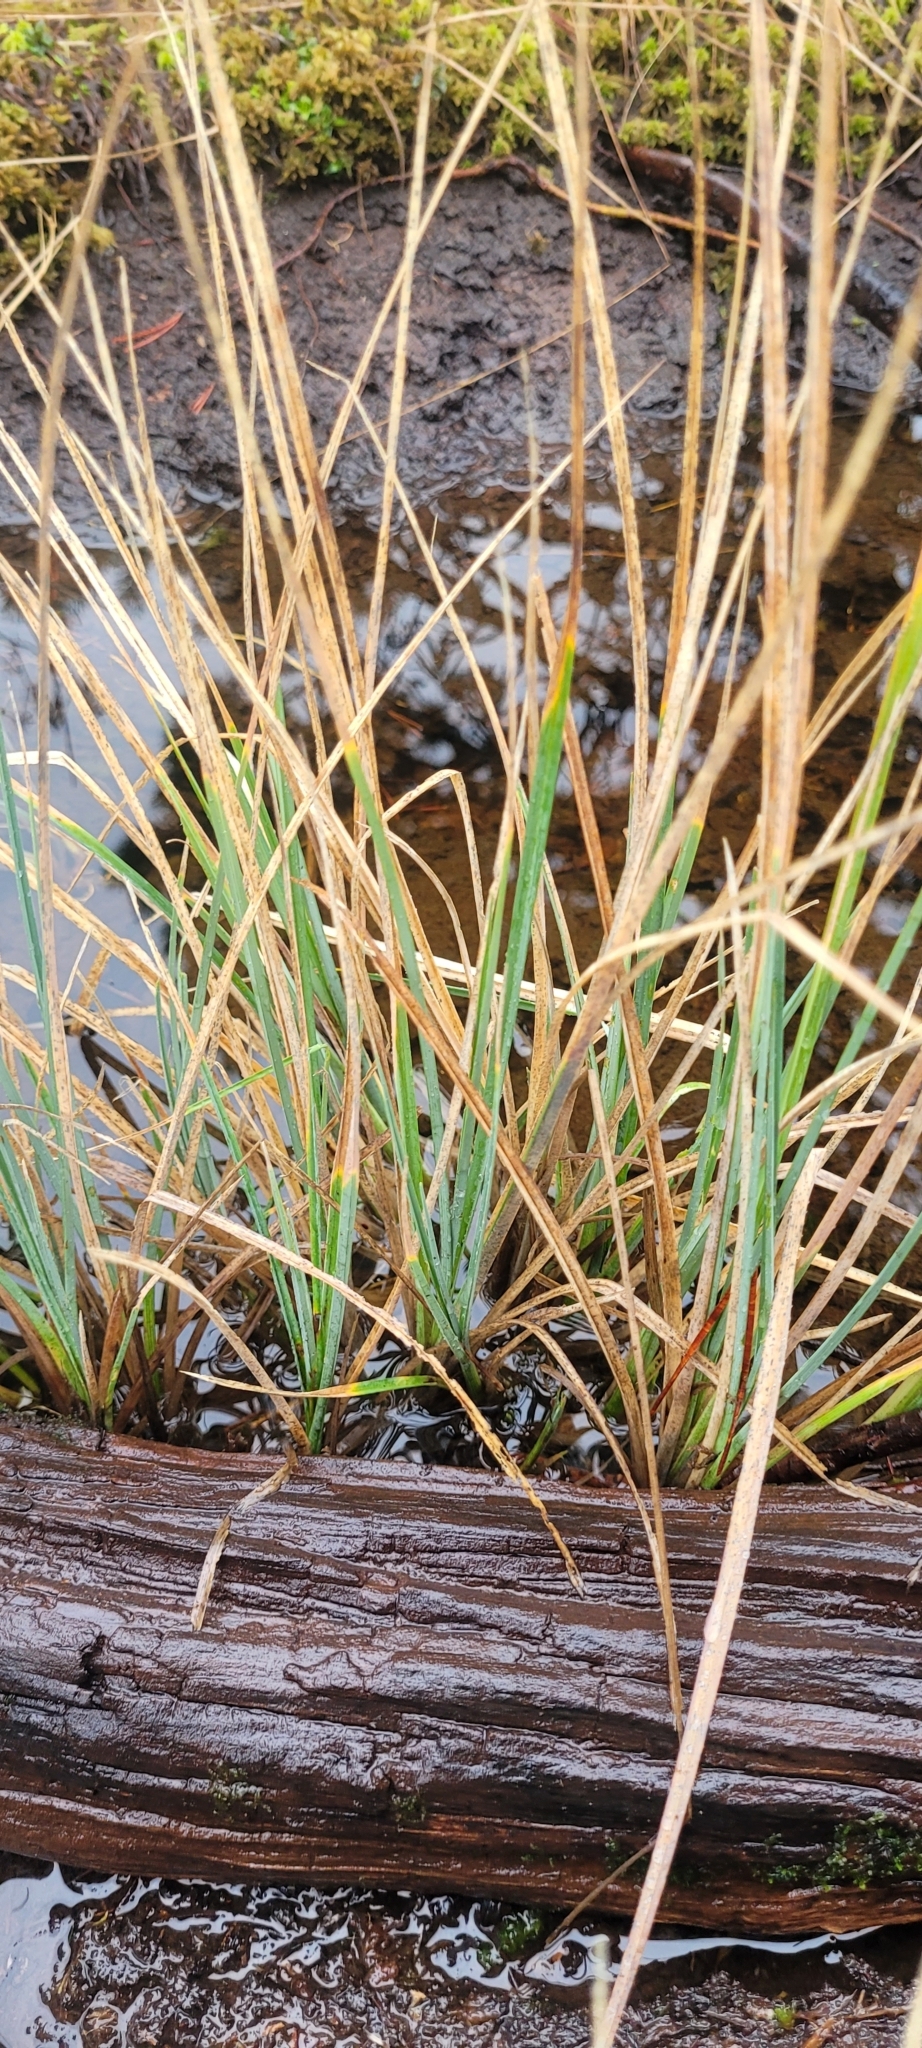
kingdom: Plantae
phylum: Tracheophyta
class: Liliopsida
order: Poales
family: Cyperaceae
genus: Carex
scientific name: Carex livida
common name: Livid sedge
